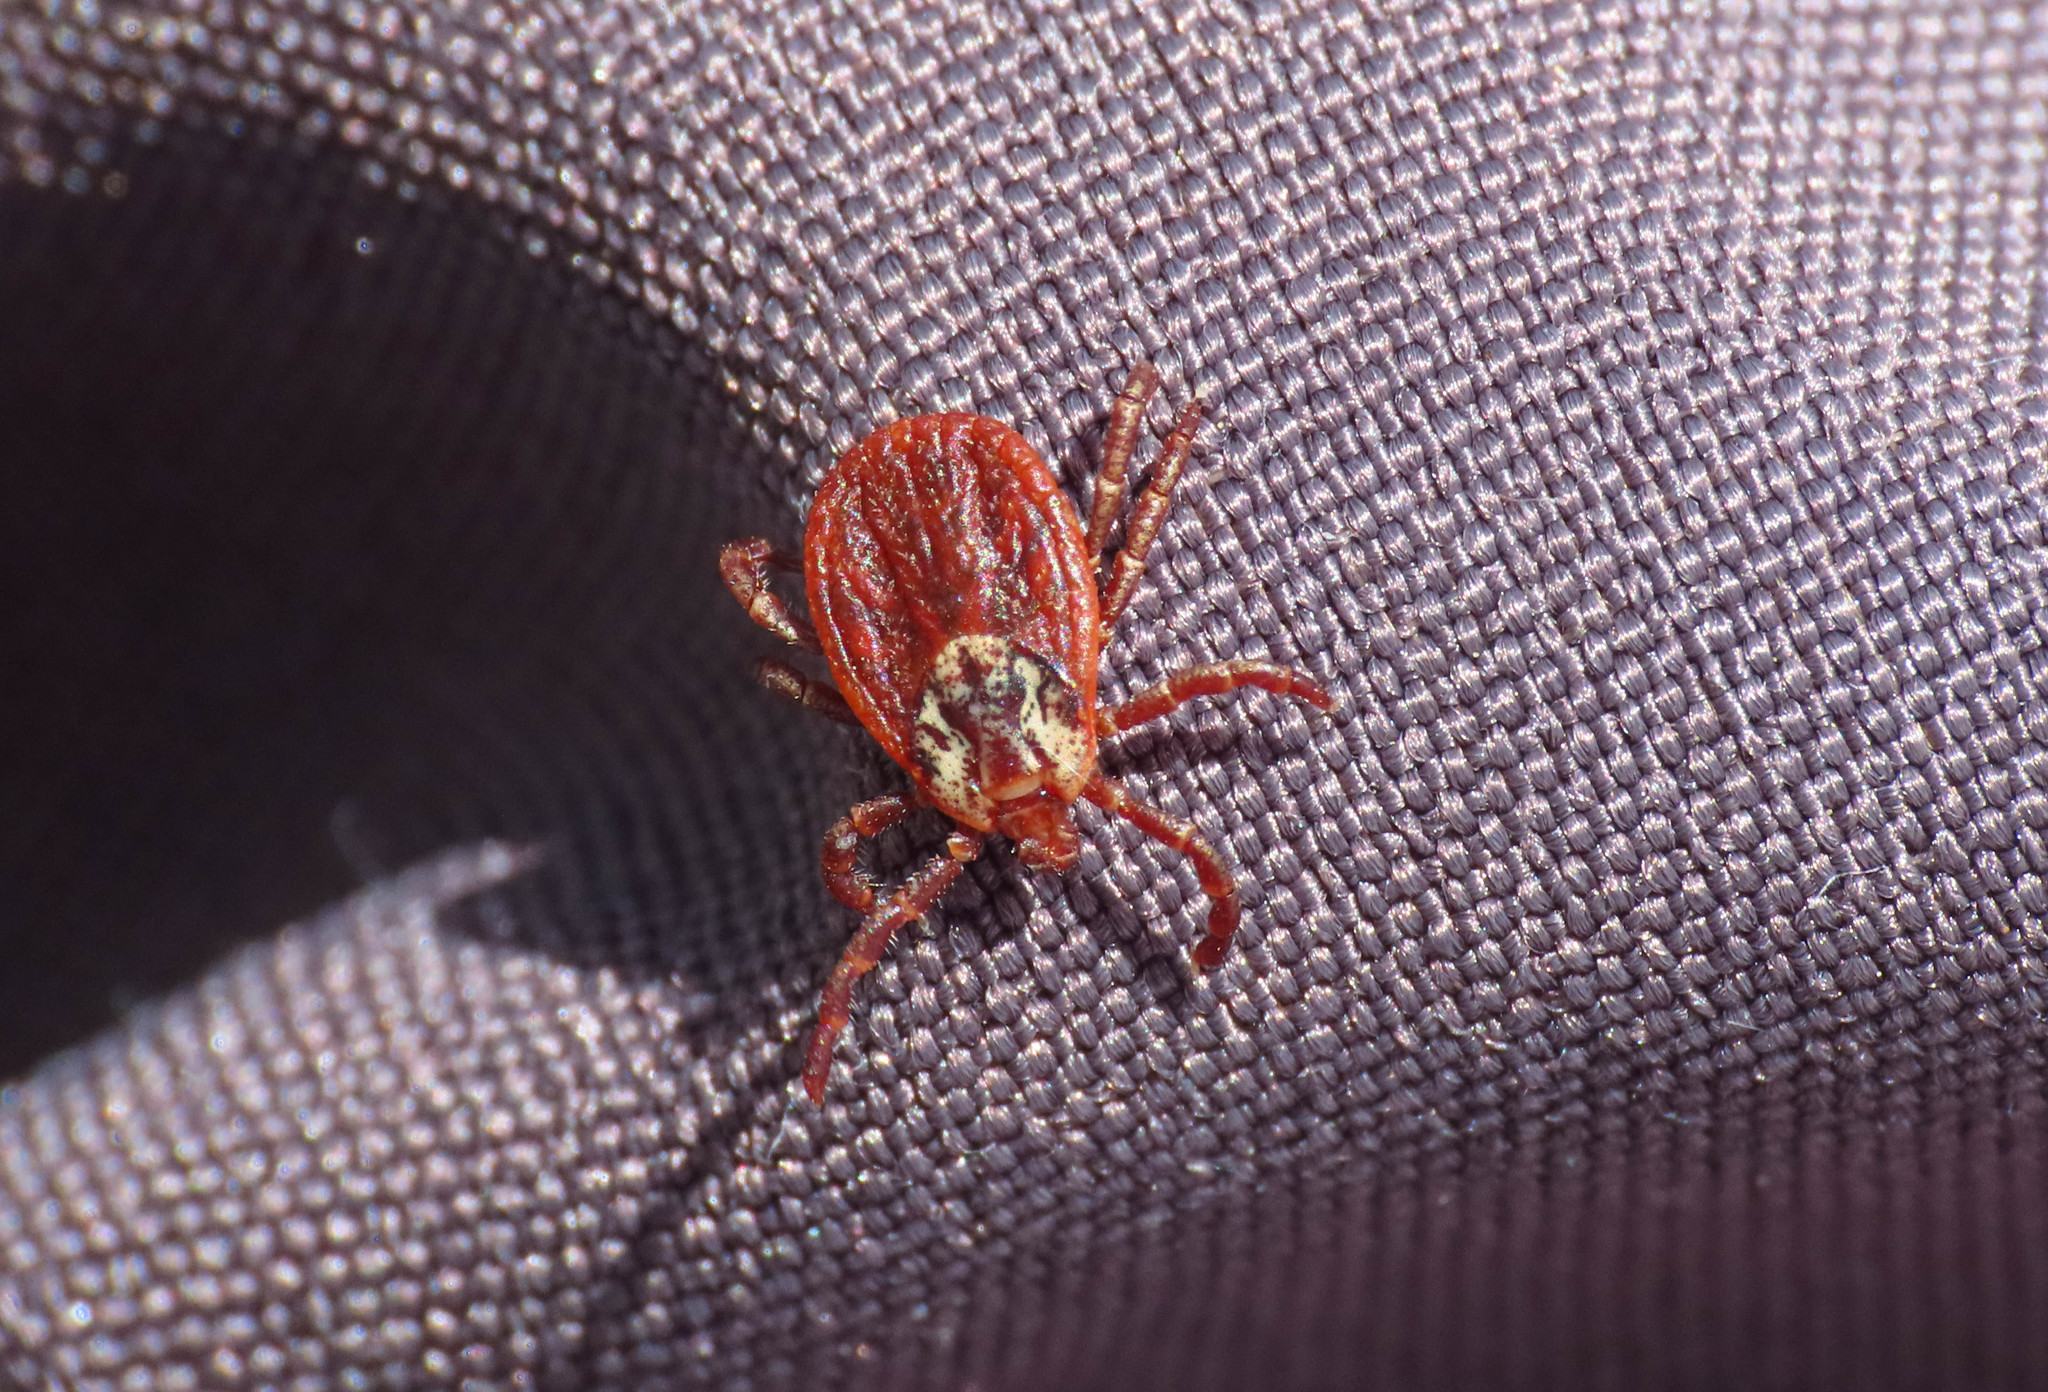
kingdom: Animalia
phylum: Arthropoda
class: Arachnida
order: Ixodida
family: Ixodidae
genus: Dermacentor
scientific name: Dermacentor marginatus
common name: Ornate sheep tick
